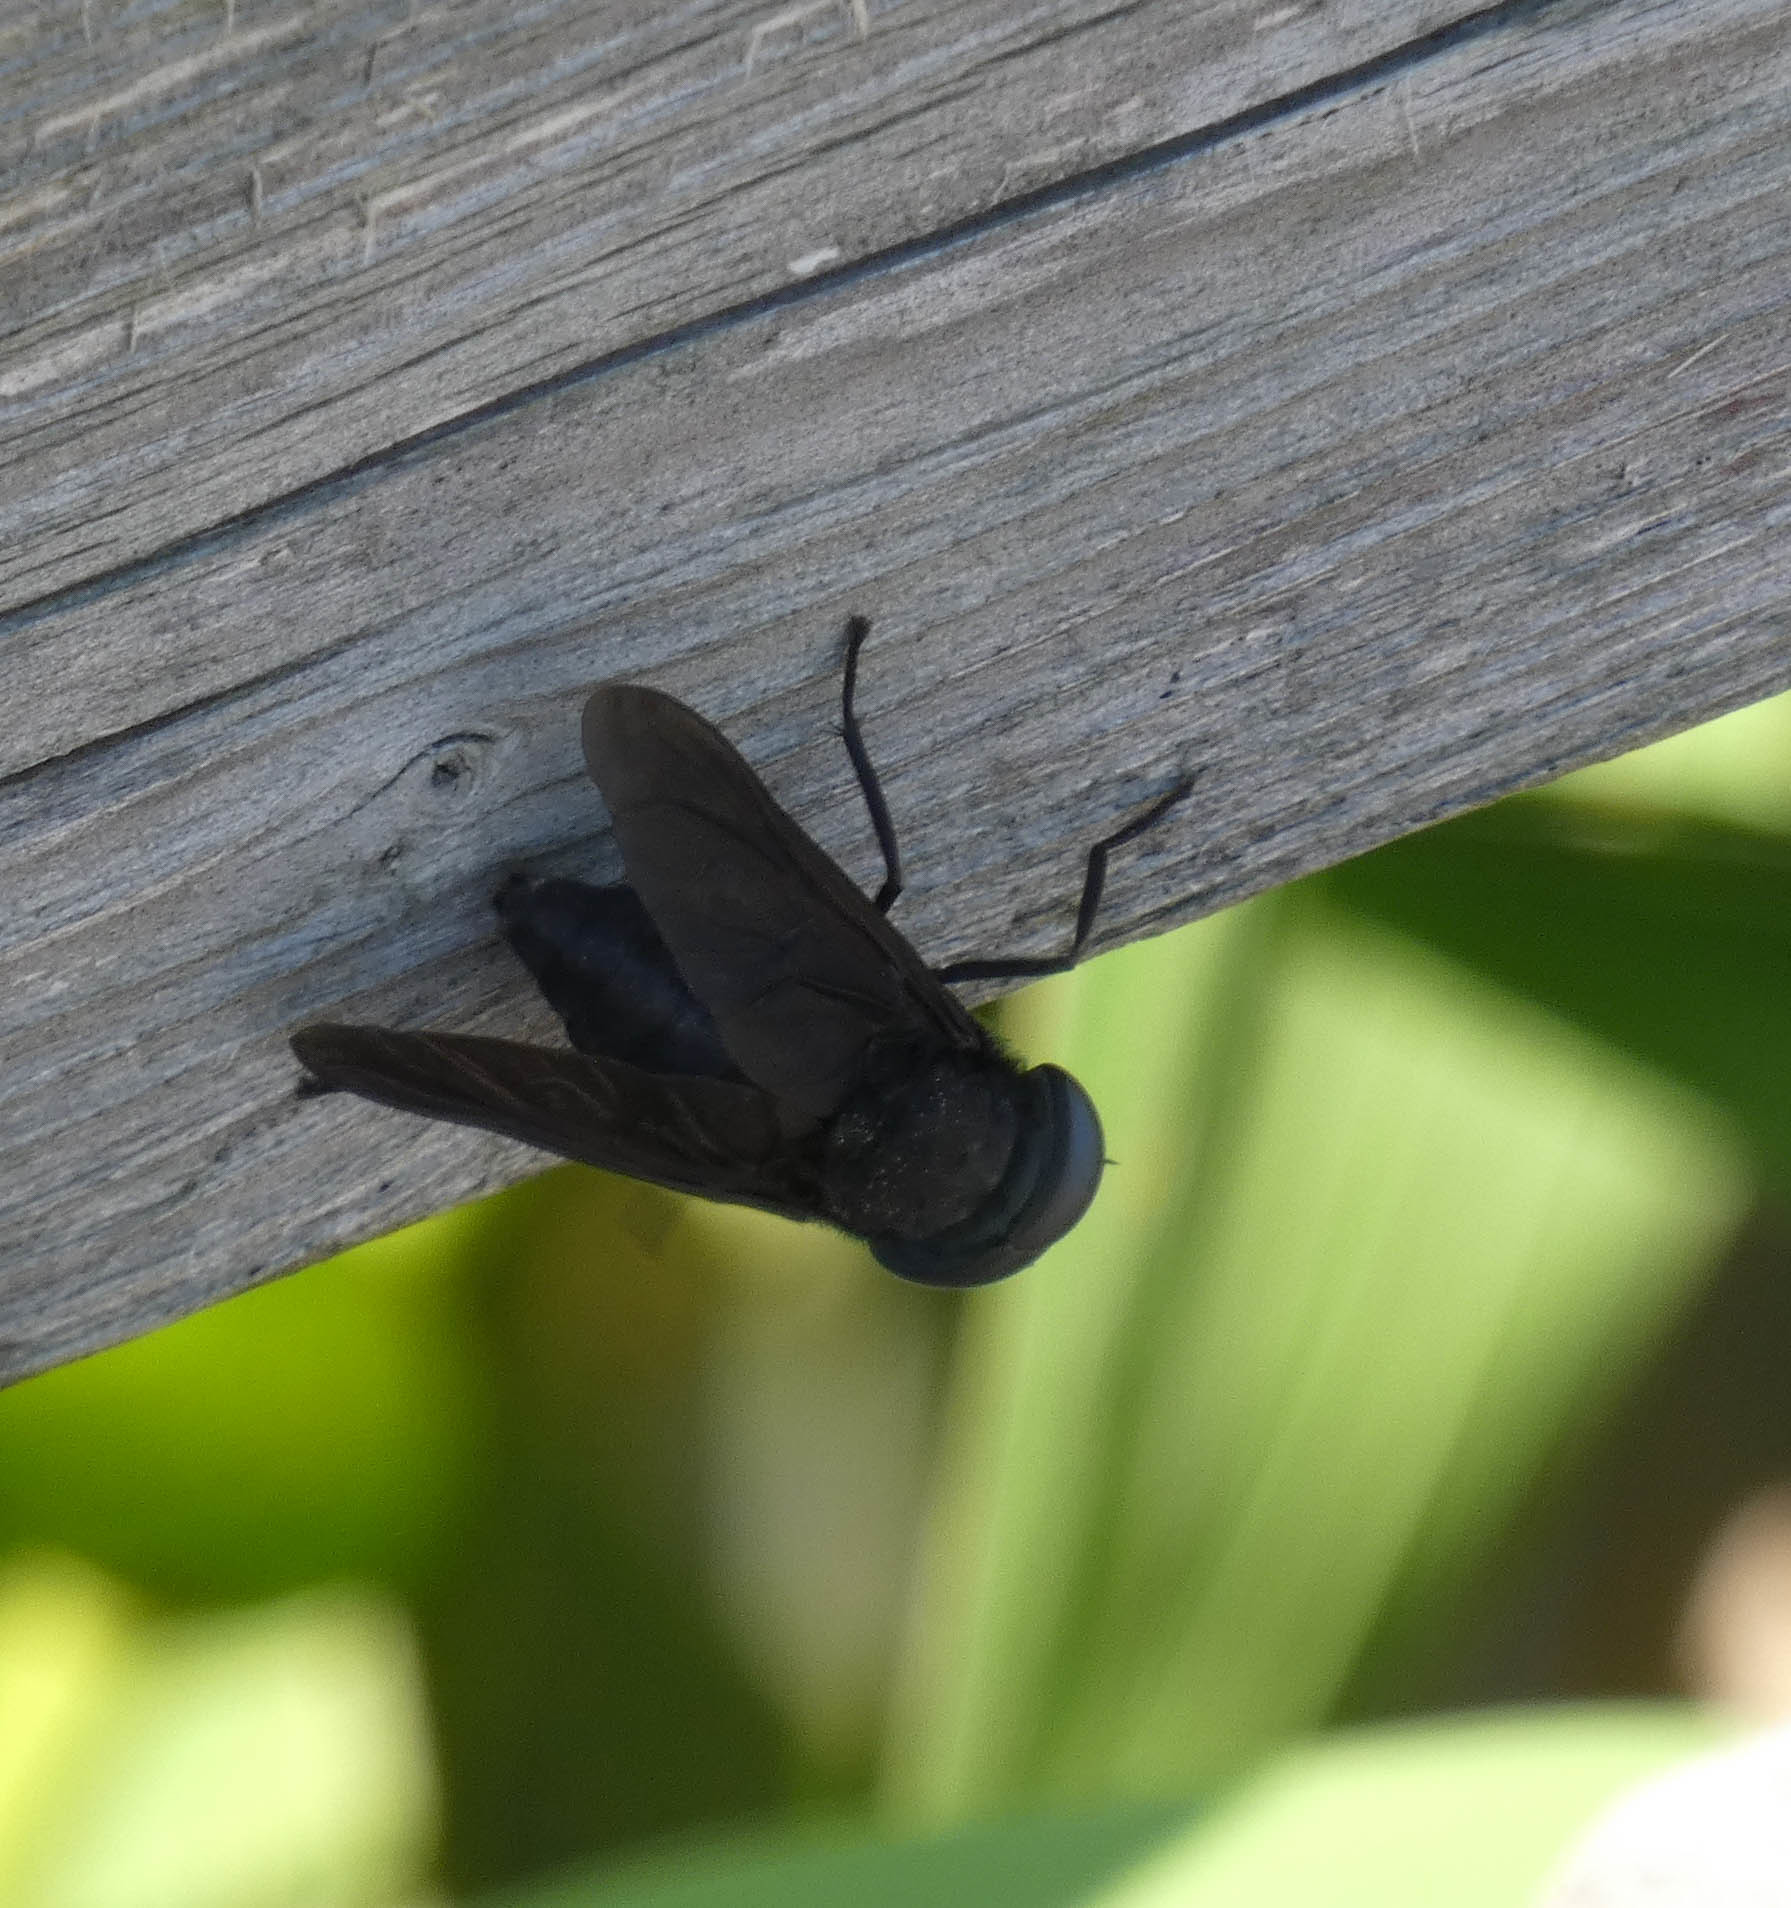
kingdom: Animalia
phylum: Arthropoda
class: Insecta
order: Diptera
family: Tabanidae
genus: Tabanus
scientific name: Tabanus atratus
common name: Black horse fly
